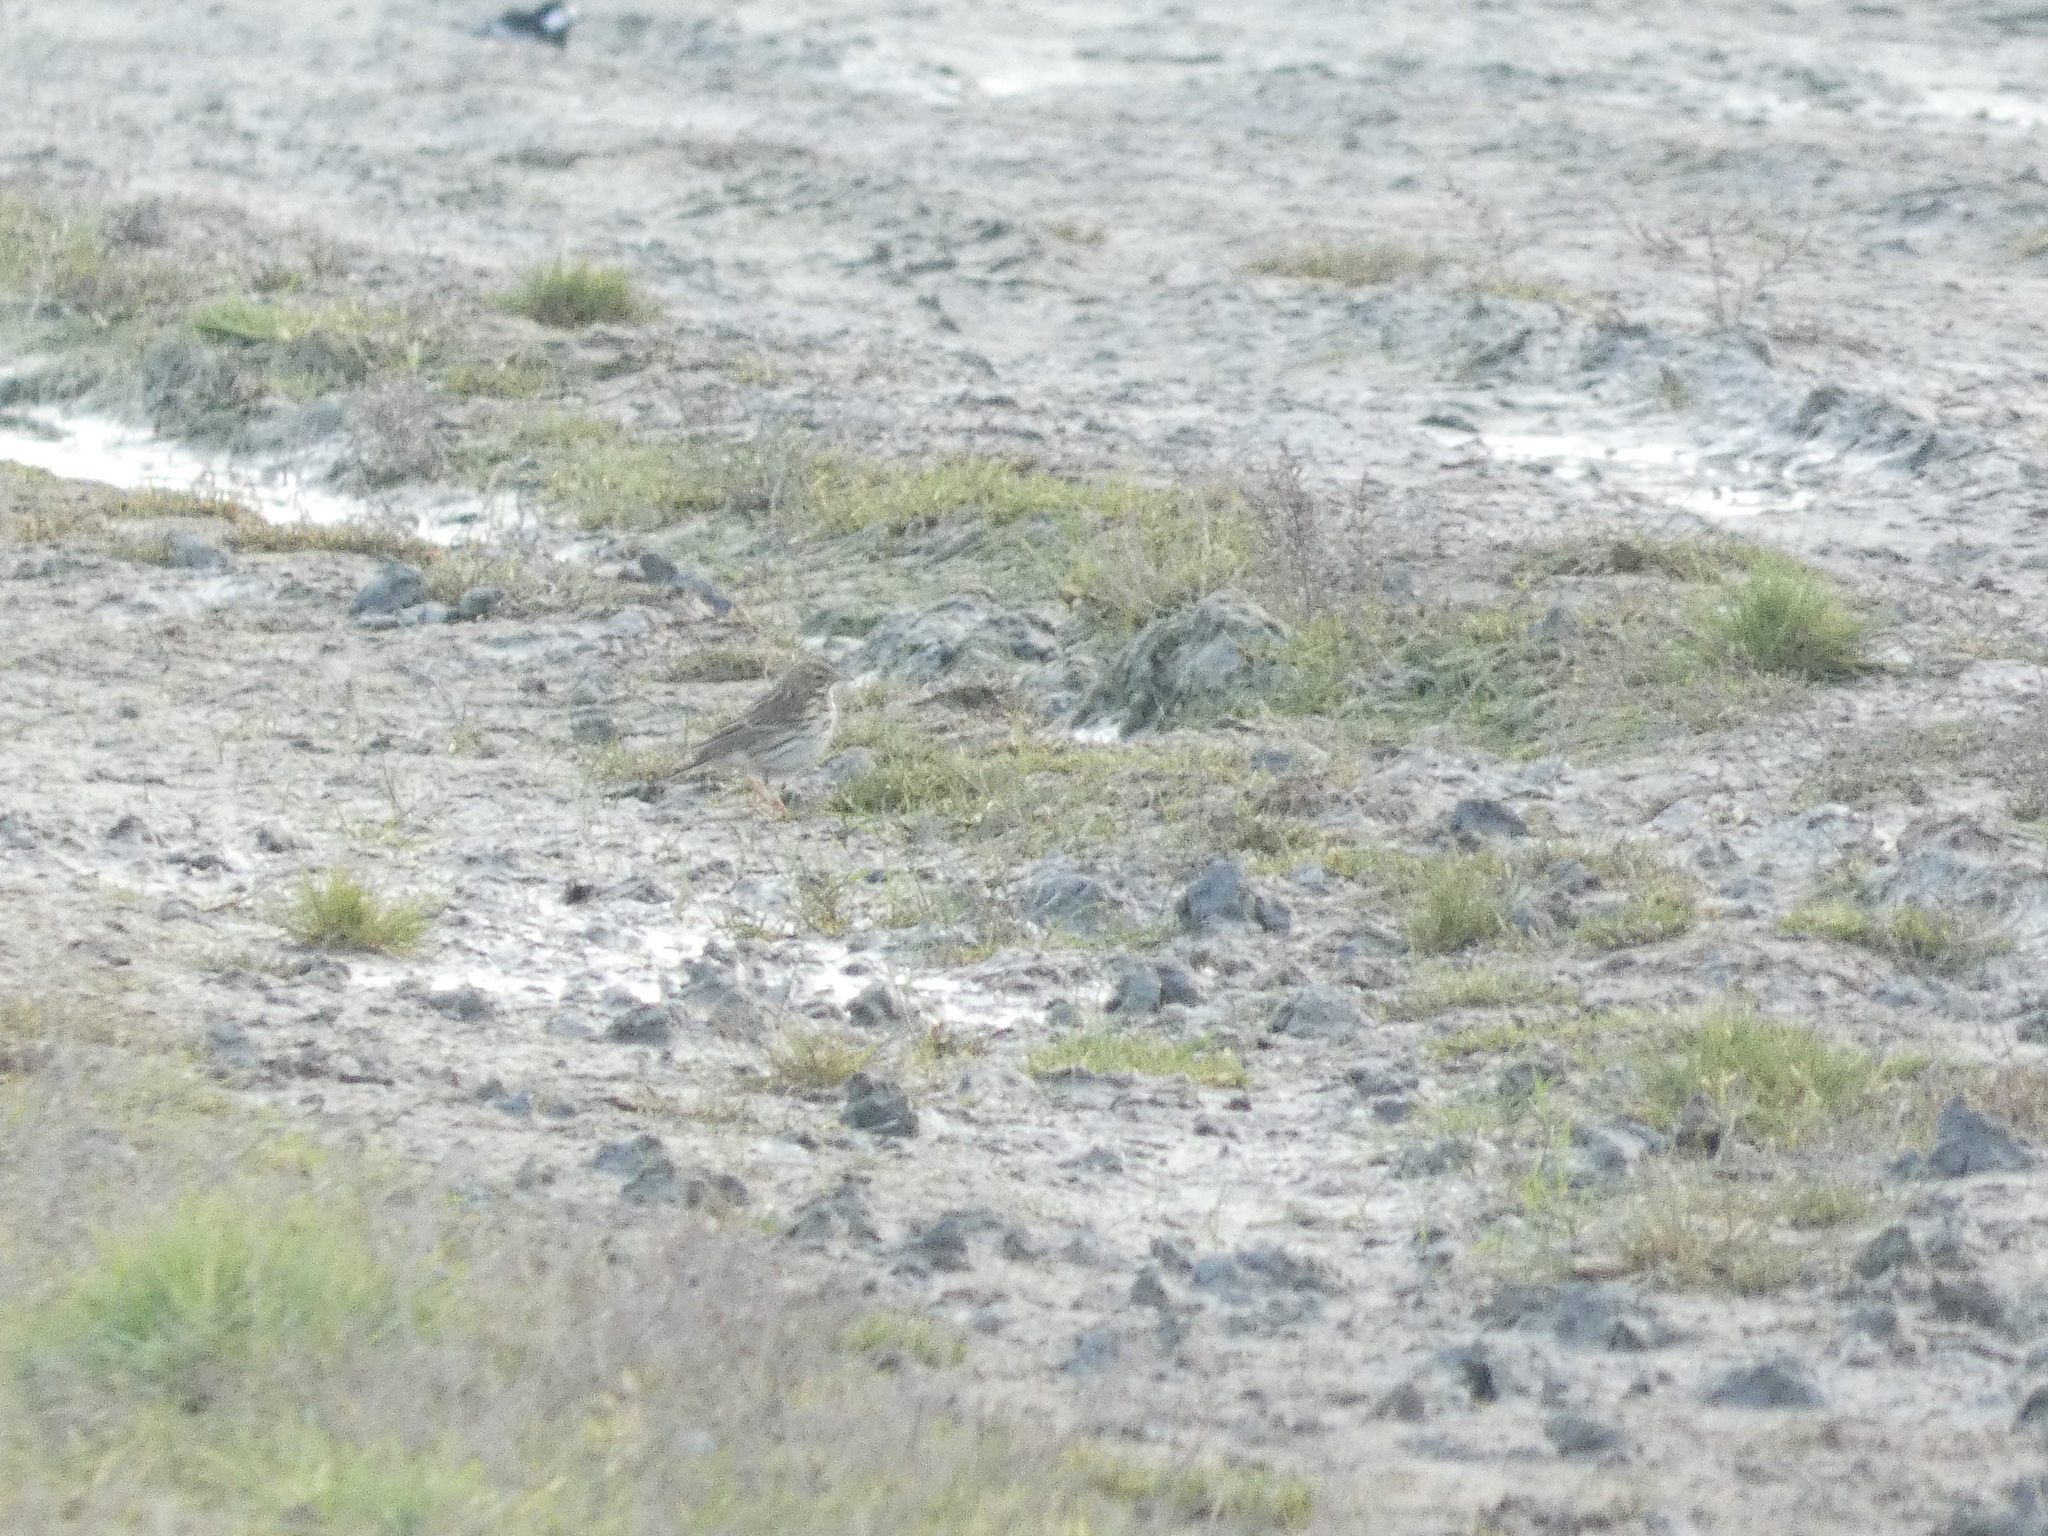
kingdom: Animalia
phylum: Chordata
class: Aves
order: Passeriformes
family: Motacillidae
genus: Anthus
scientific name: Anthus pratensis
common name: Meadow pipit
